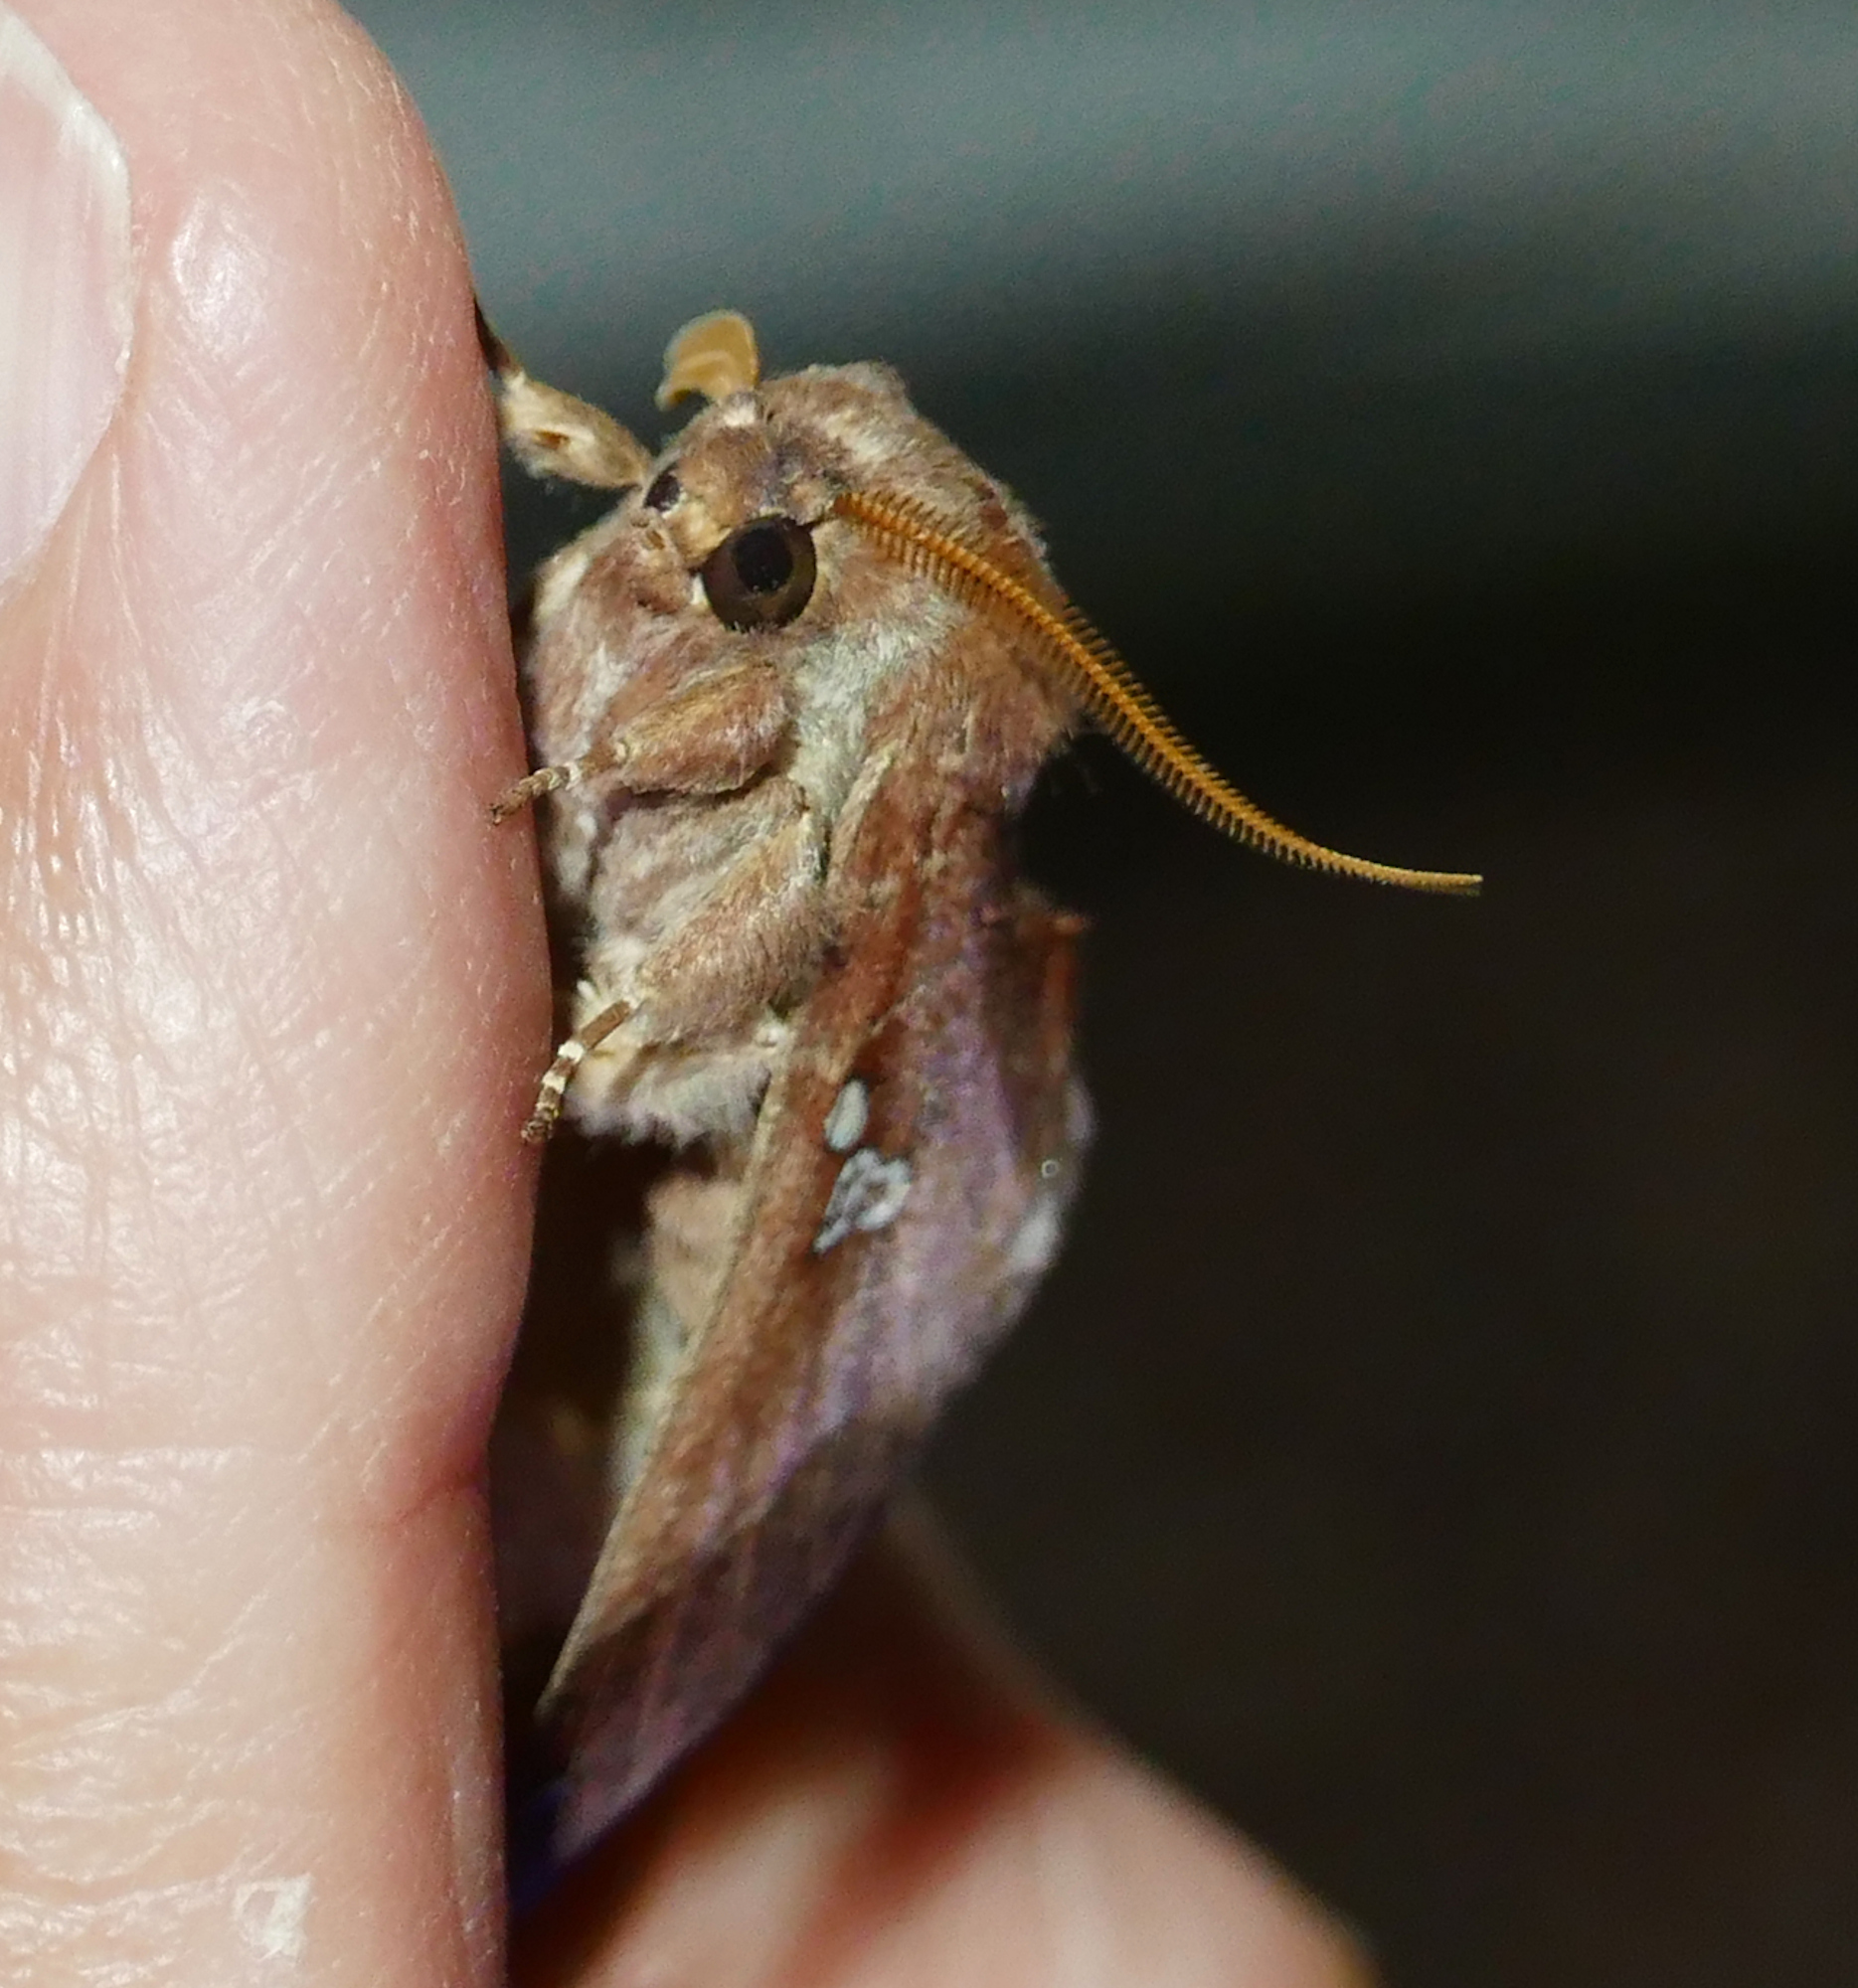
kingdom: Animalia
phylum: Arthropoda
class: Insecta
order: Lepidoptera
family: Notodontidae
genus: Pseudhapigia
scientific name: Pseudhapigia brunnea
